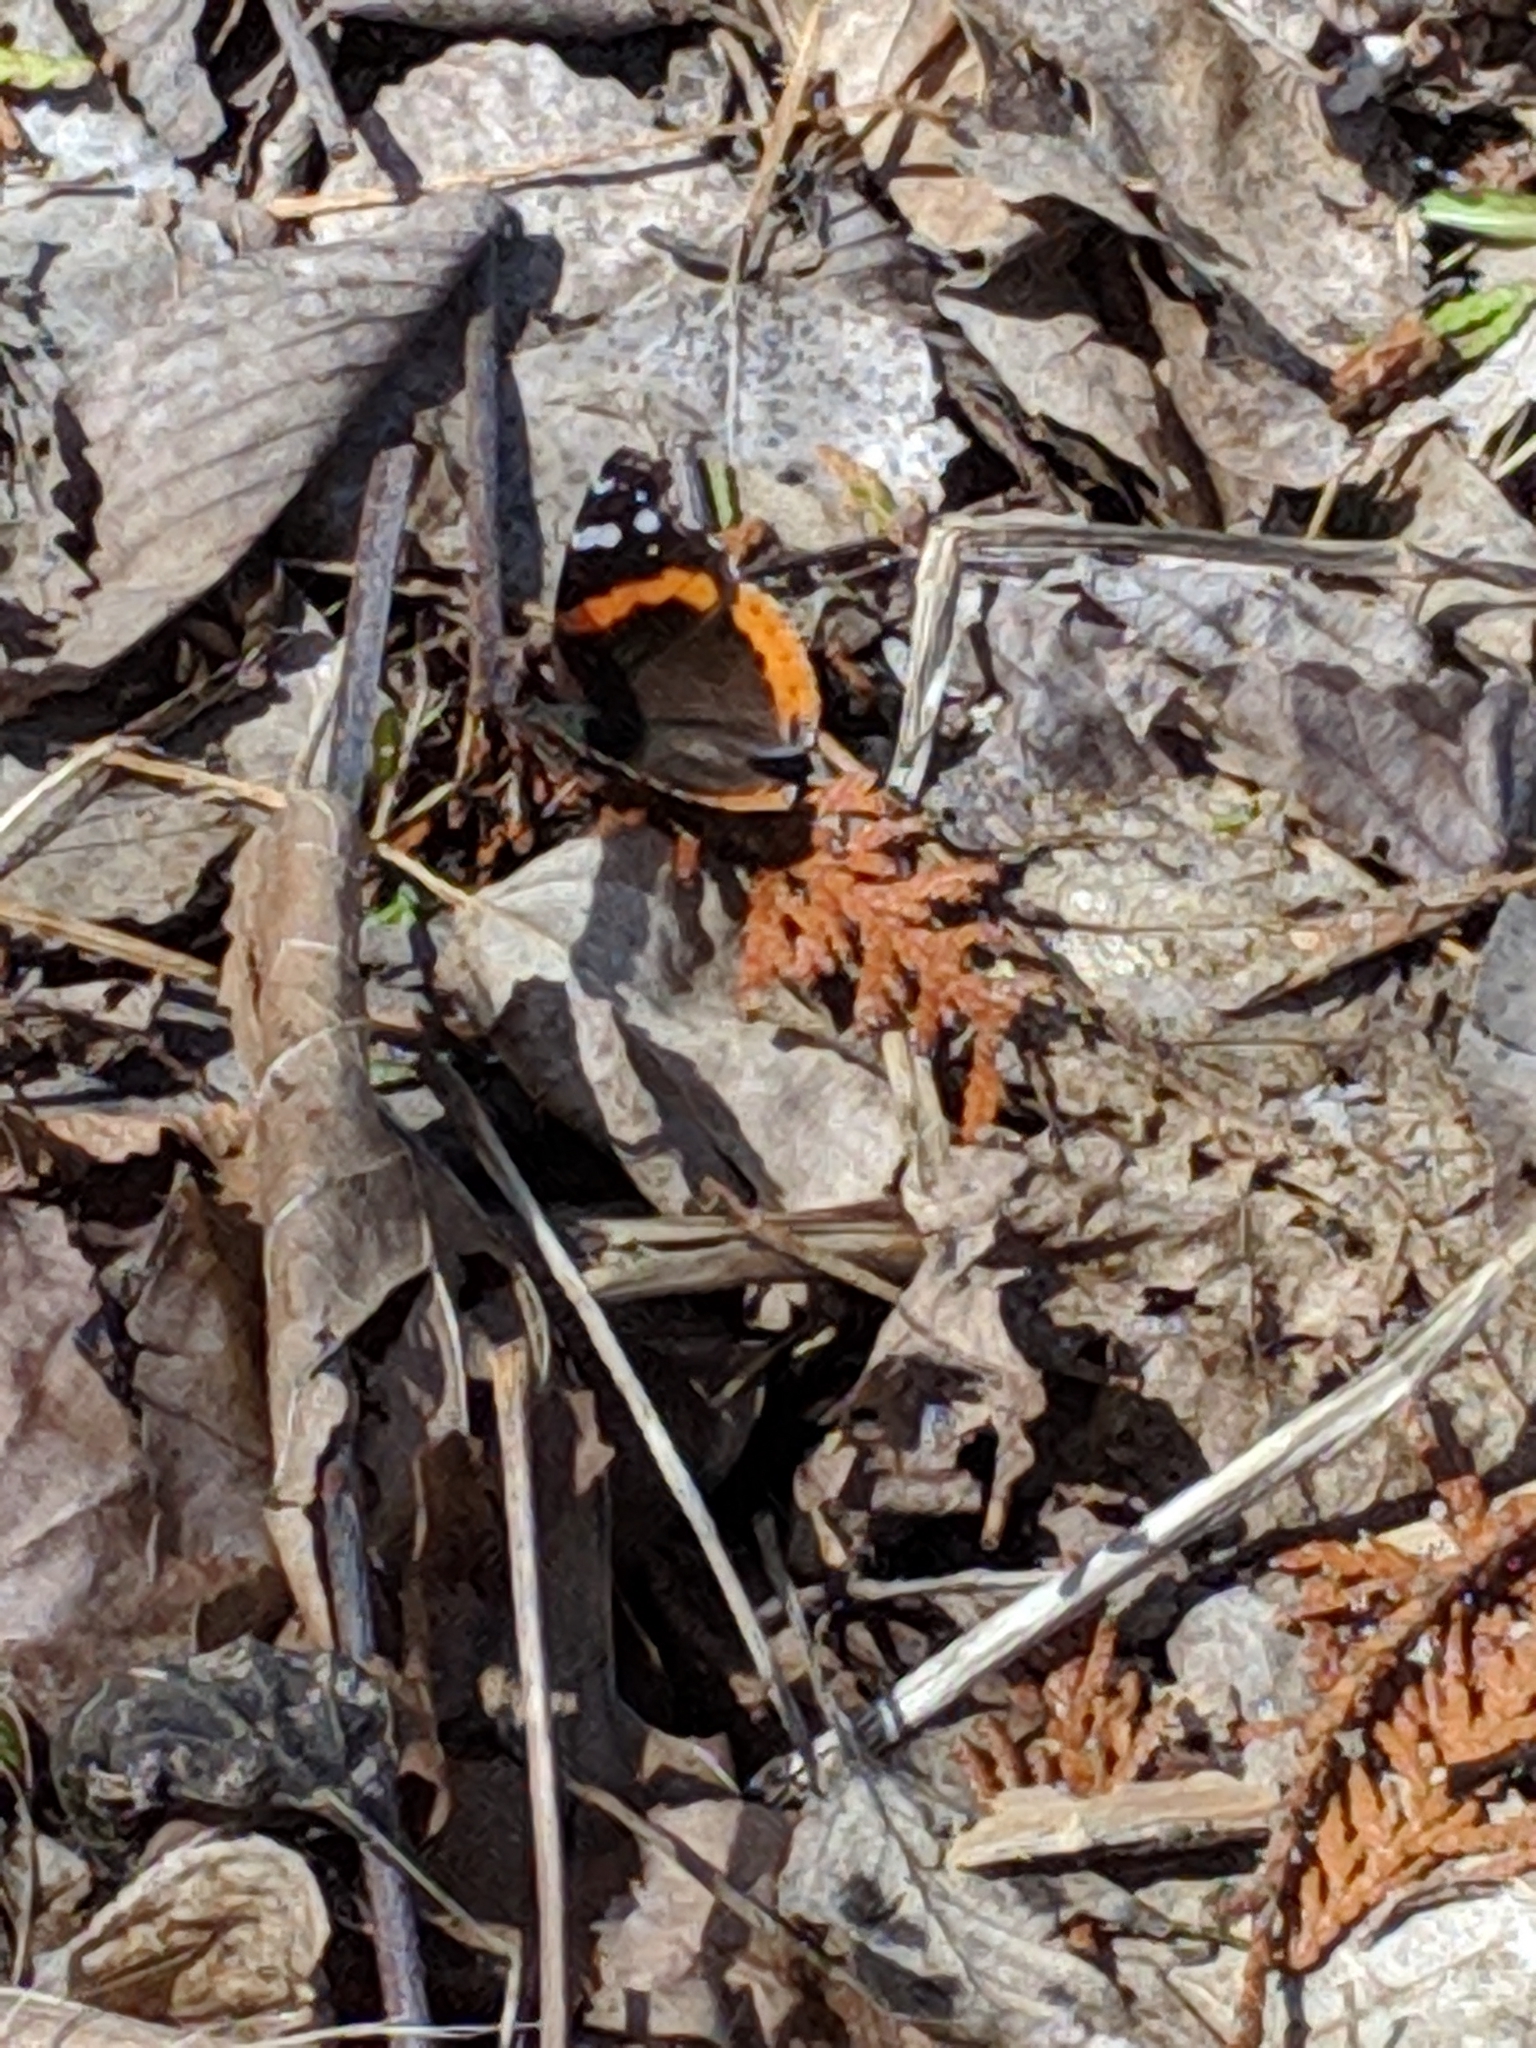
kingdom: Animalia
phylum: Arthropoda
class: Insecta
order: Lepidoptera
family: Nymphalidae
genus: Vanessa
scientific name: Vanessa atalanta
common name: Red admiral
